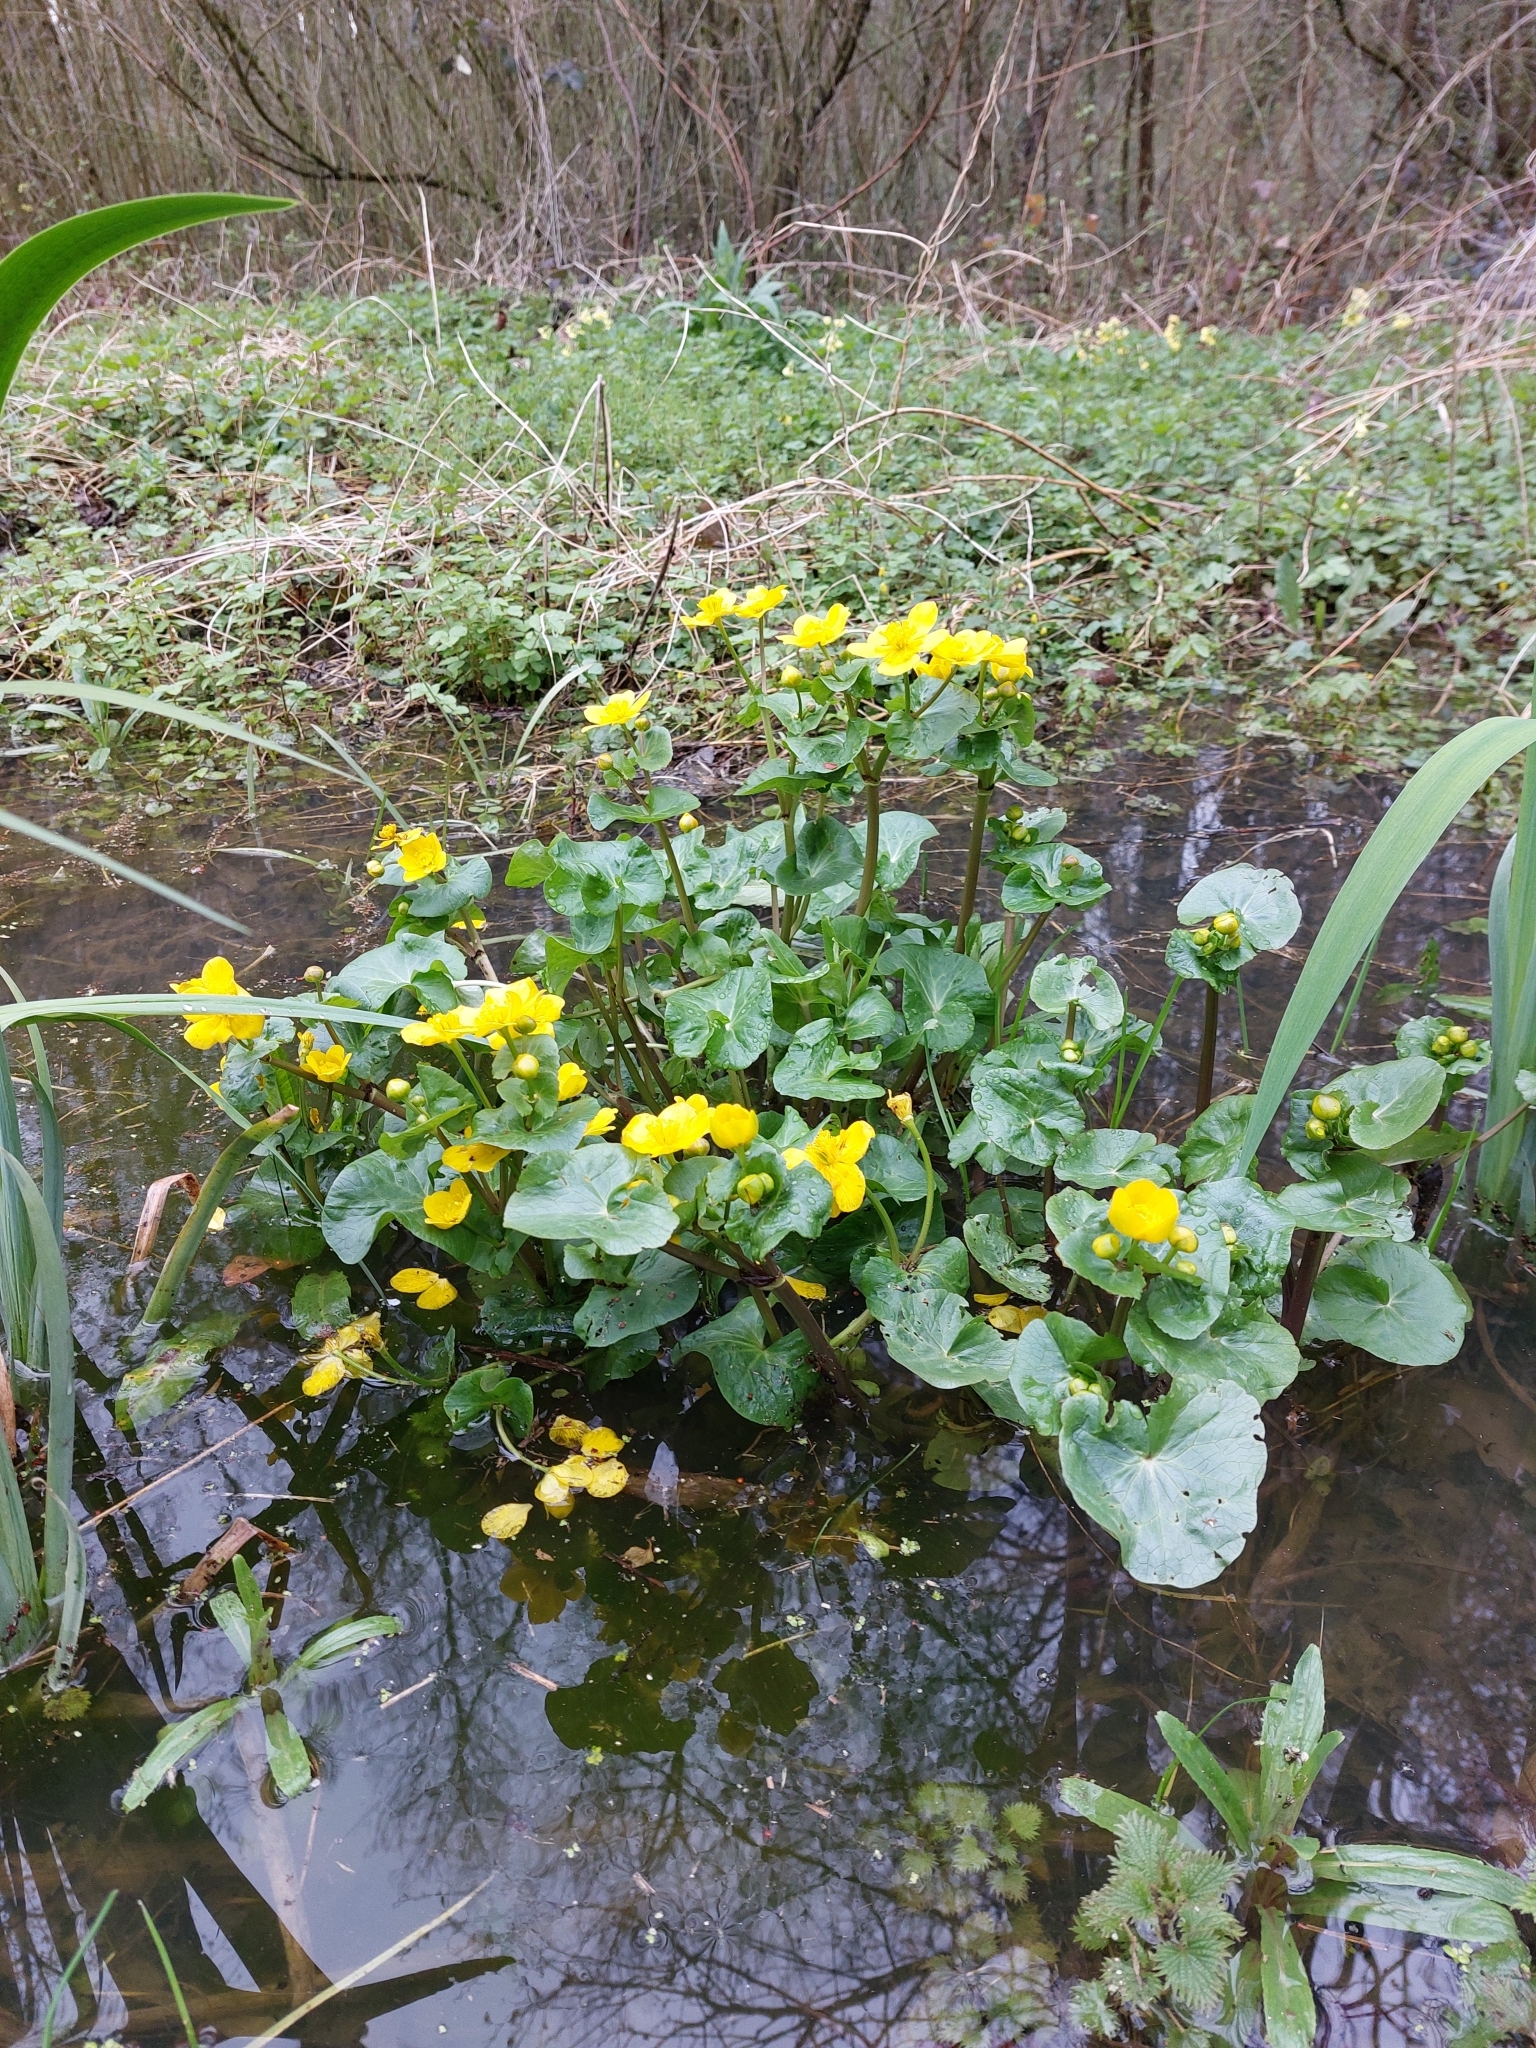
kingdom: Plantae
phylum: Tracheophyta
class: Magnoliopsida
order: Ranunculales
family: Ranunculaceae
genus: Caltha
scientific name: Caltha palustris
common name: Marsh marigold
